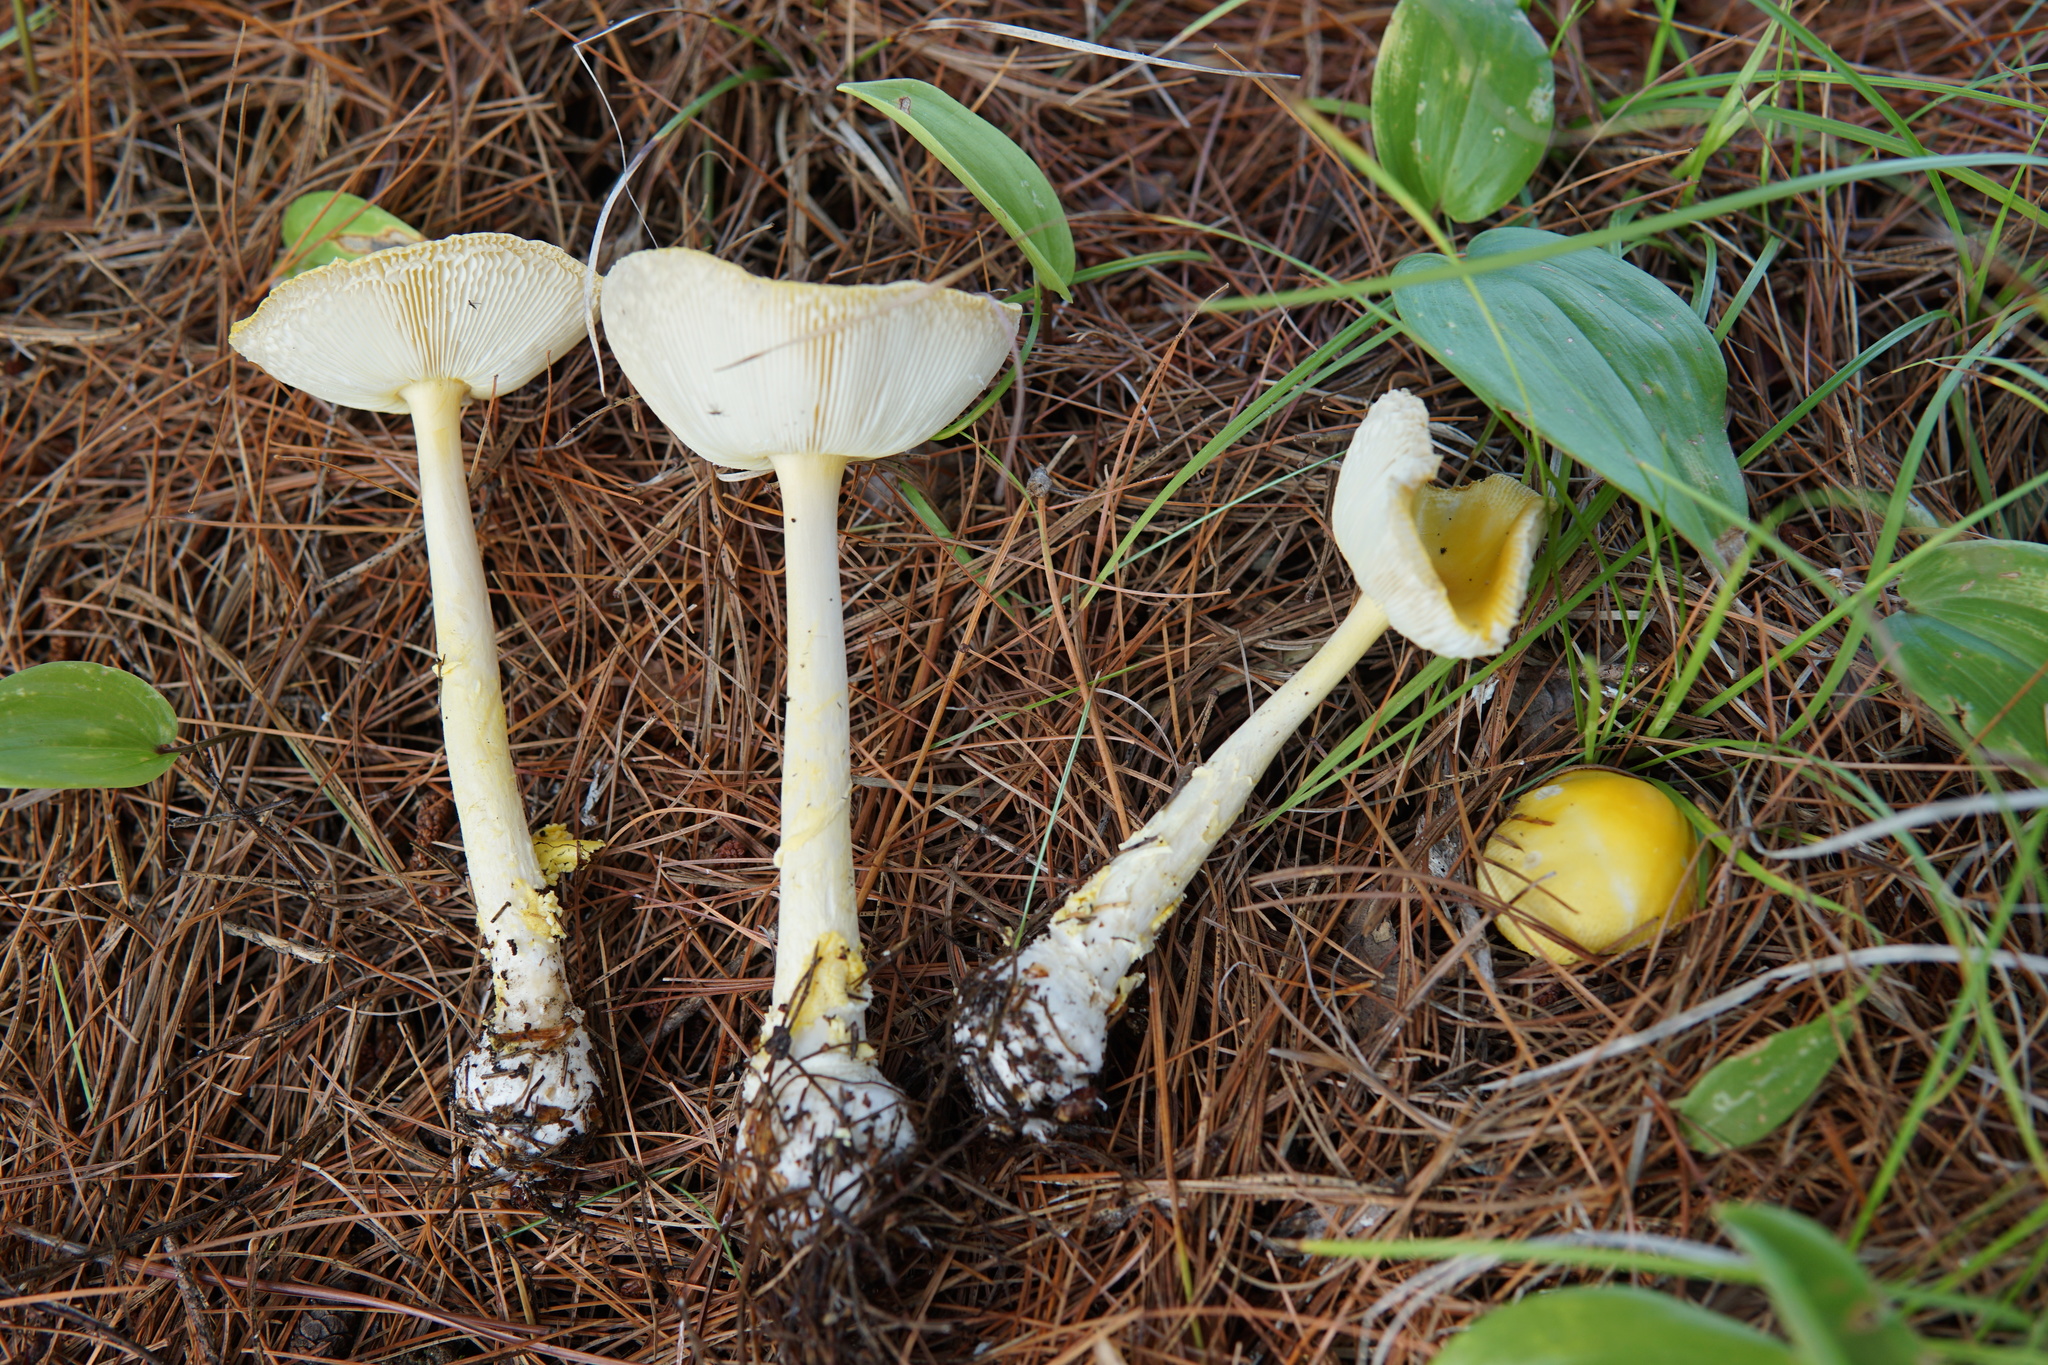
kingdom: Fungi
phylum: Basidiomycota
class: Agaricomycetes
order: Agaricales
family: Amanitaceae
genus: Amanita
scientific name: Amanita frostiana
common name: Frost's amanita
